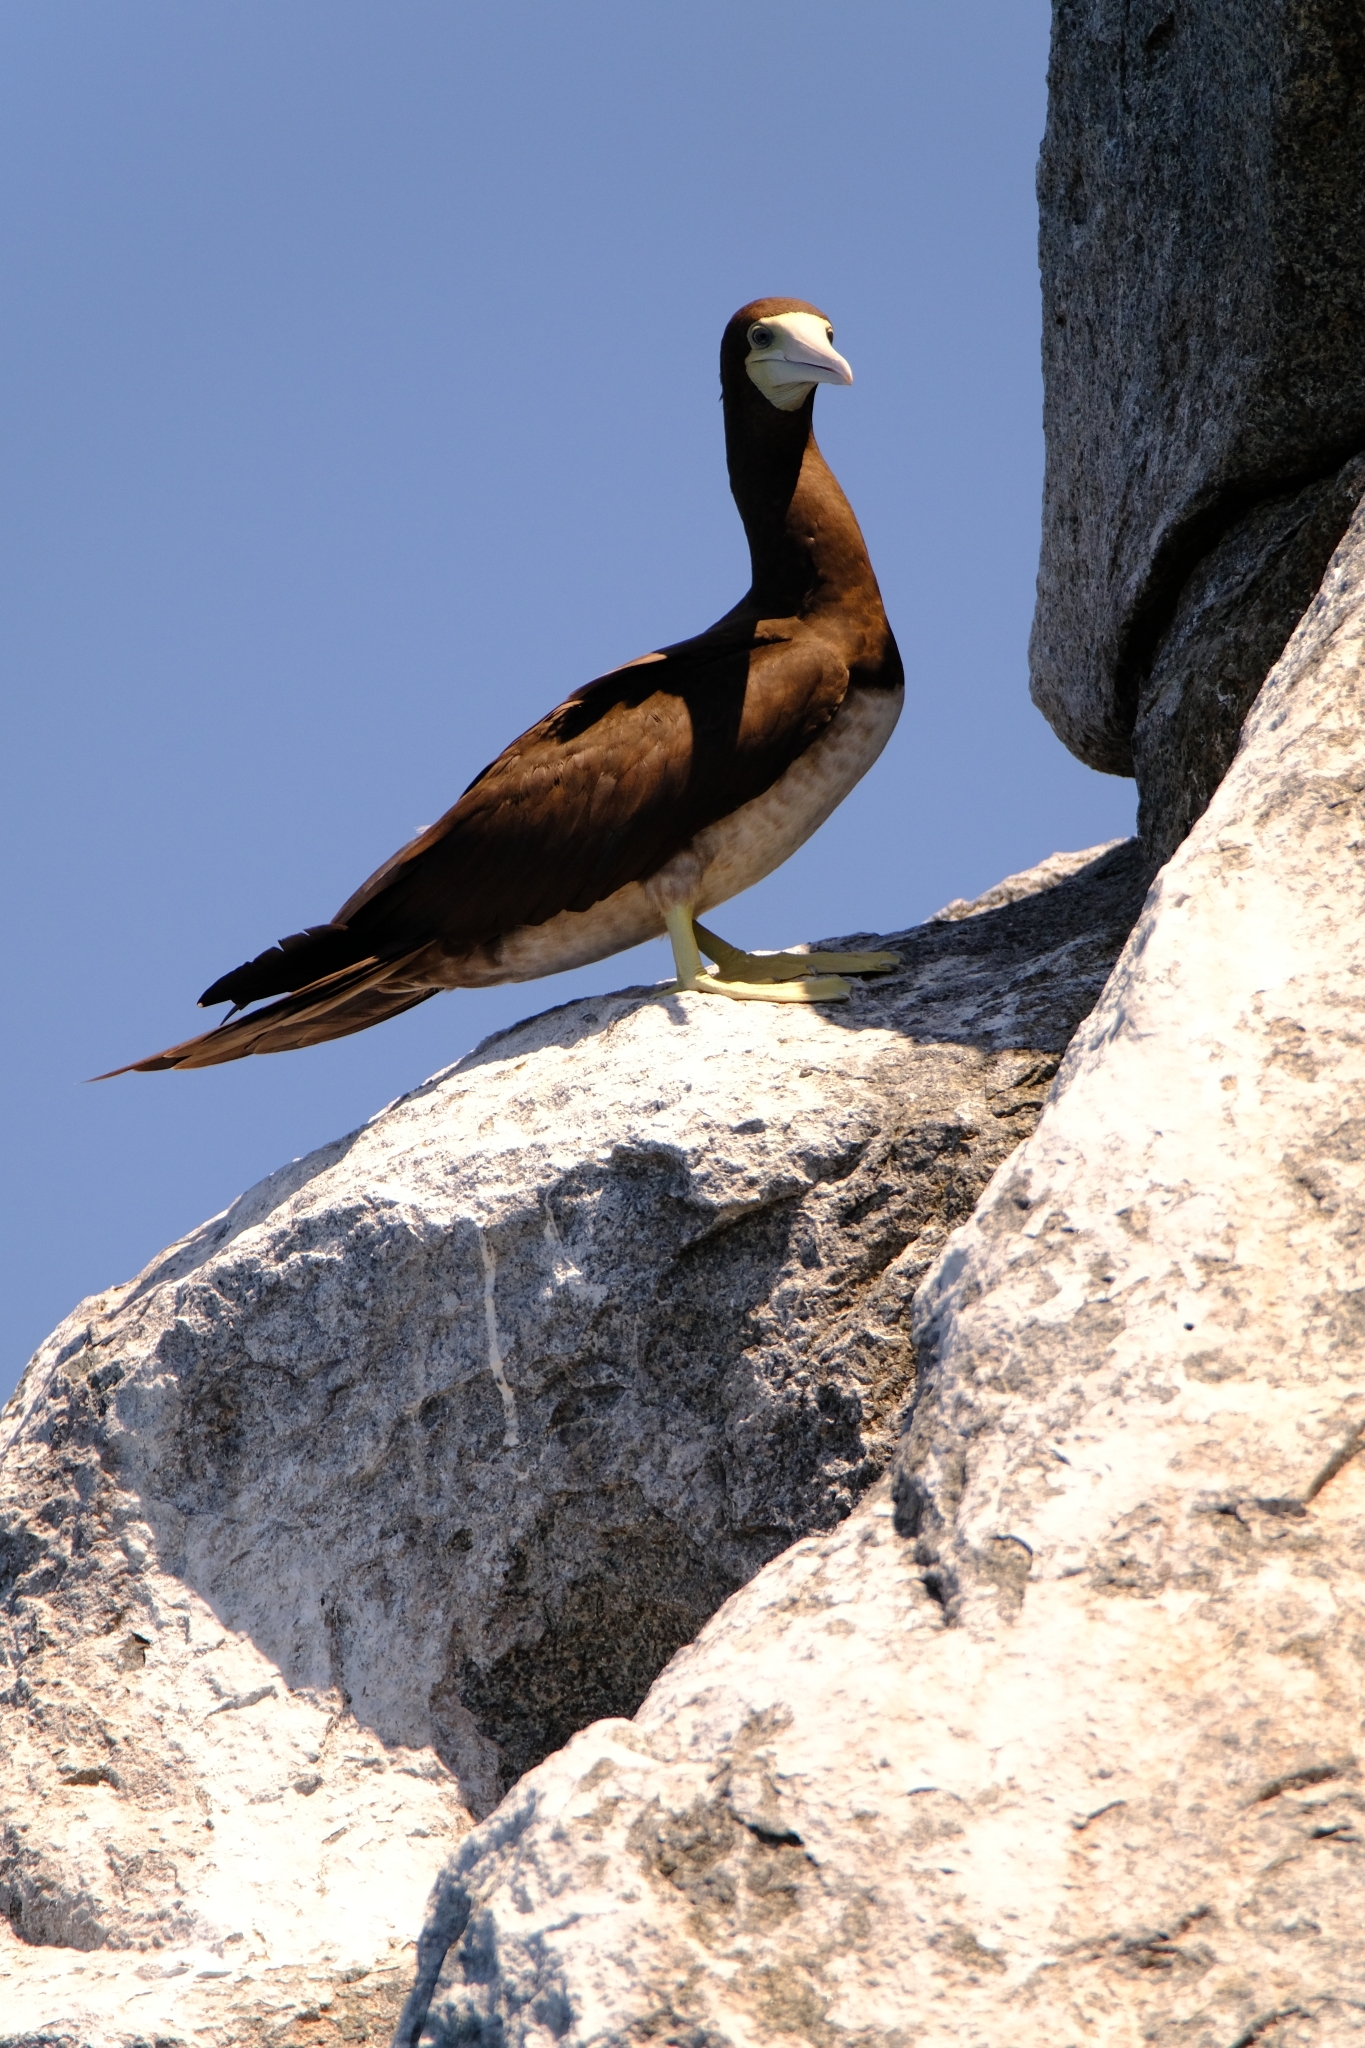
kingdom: Animalia
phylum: Chordata
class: Aves
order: Suliformes
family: Sulidae
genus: Sula
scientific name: Sula leucogaster
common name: Brown booby
